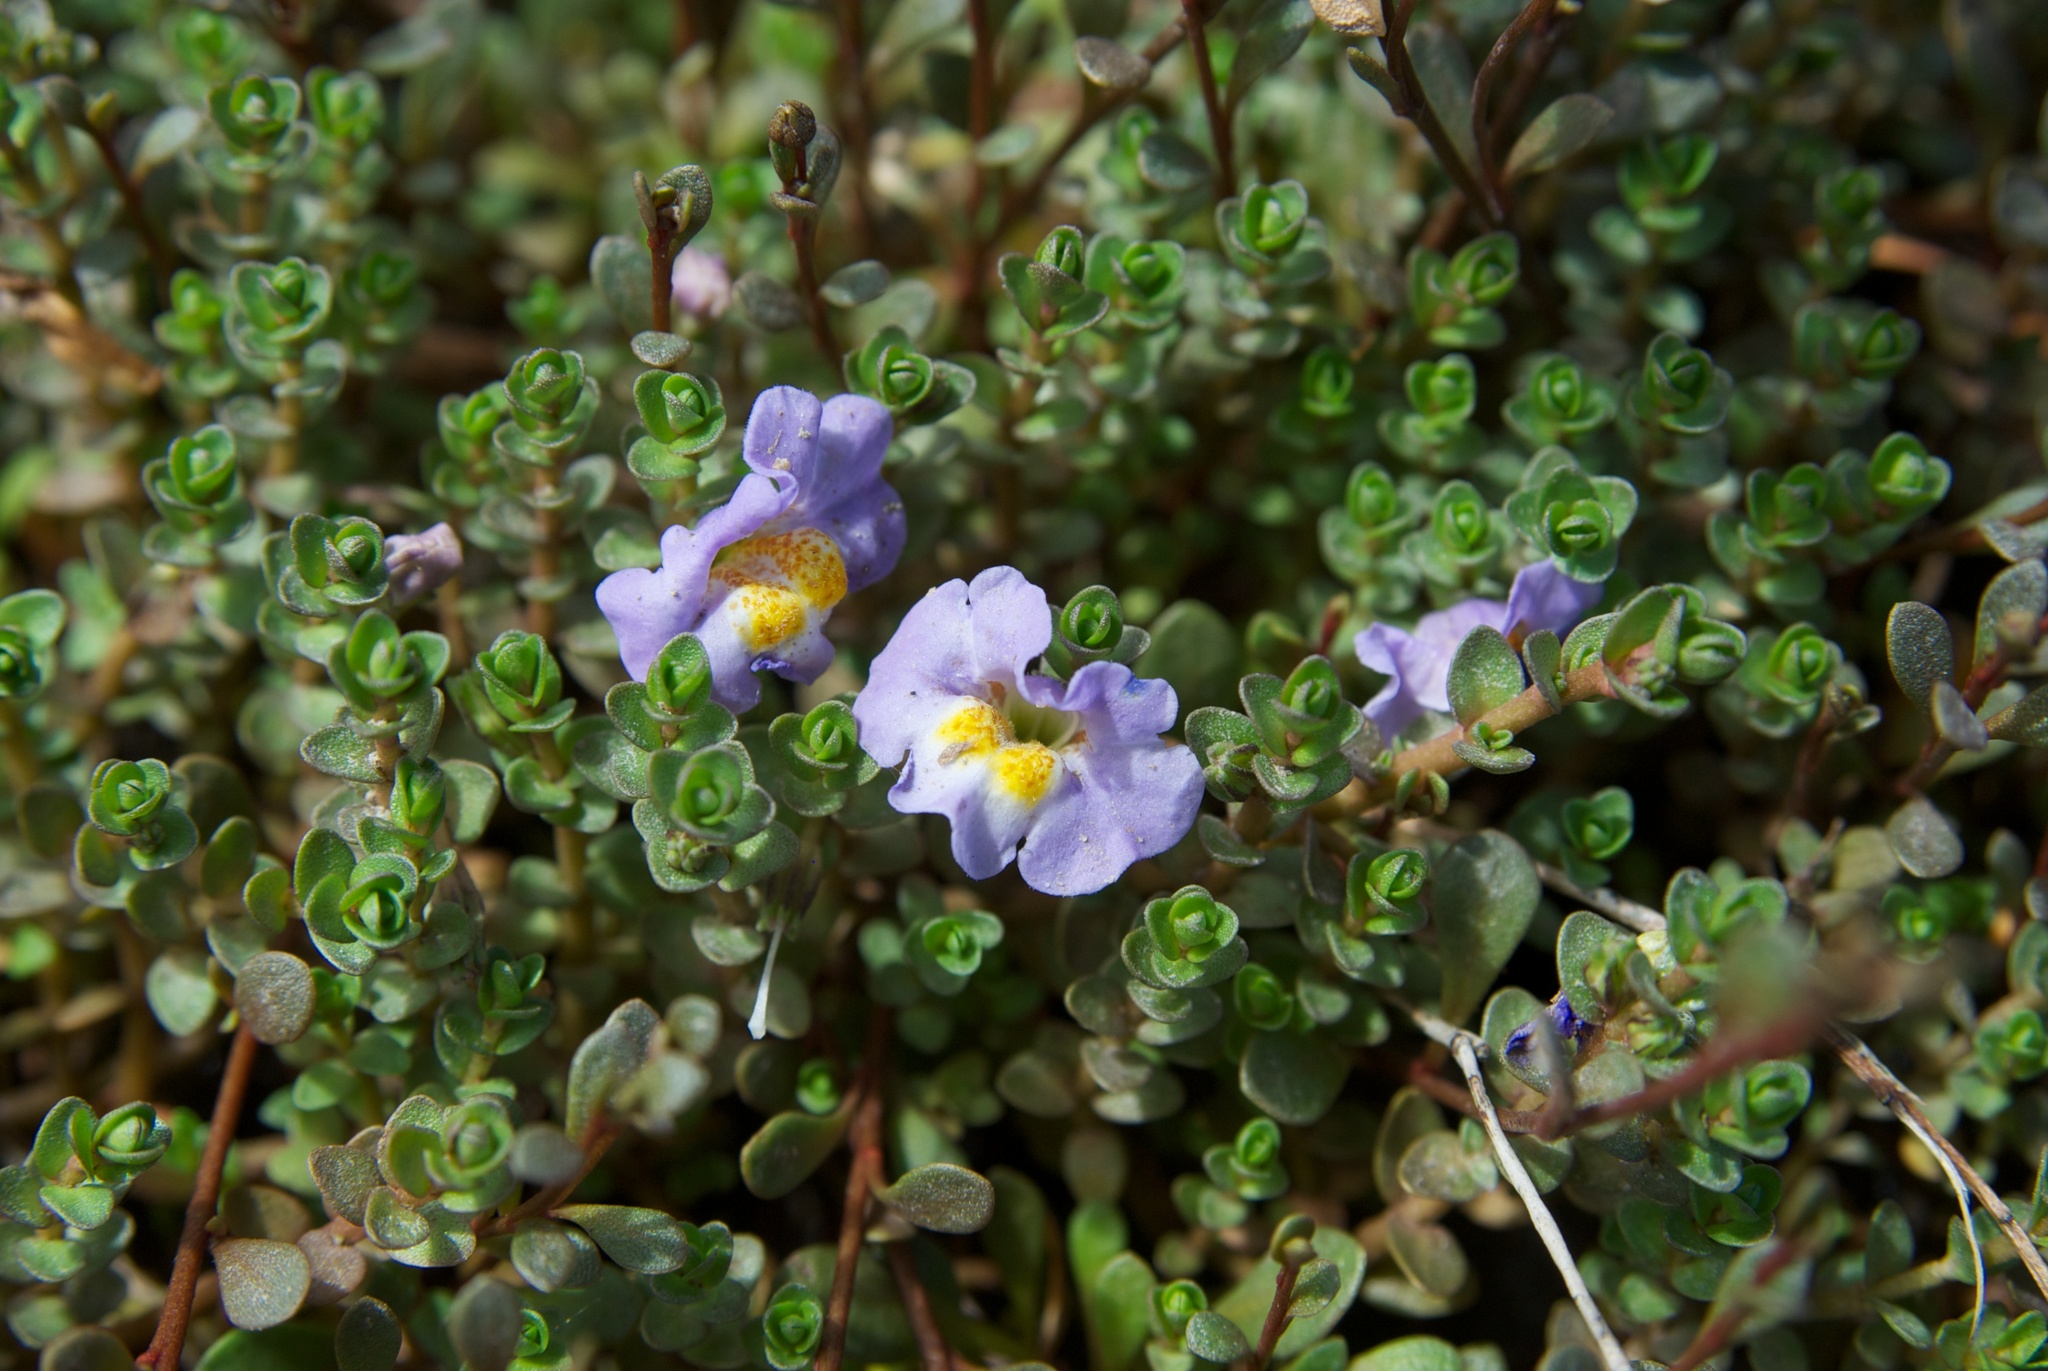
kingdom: Plantae
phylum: Tracheophyta
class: Magnoliopsida
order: Lamiales
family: Phrymaceae
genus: Thyridia
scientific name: Thyridia repens
